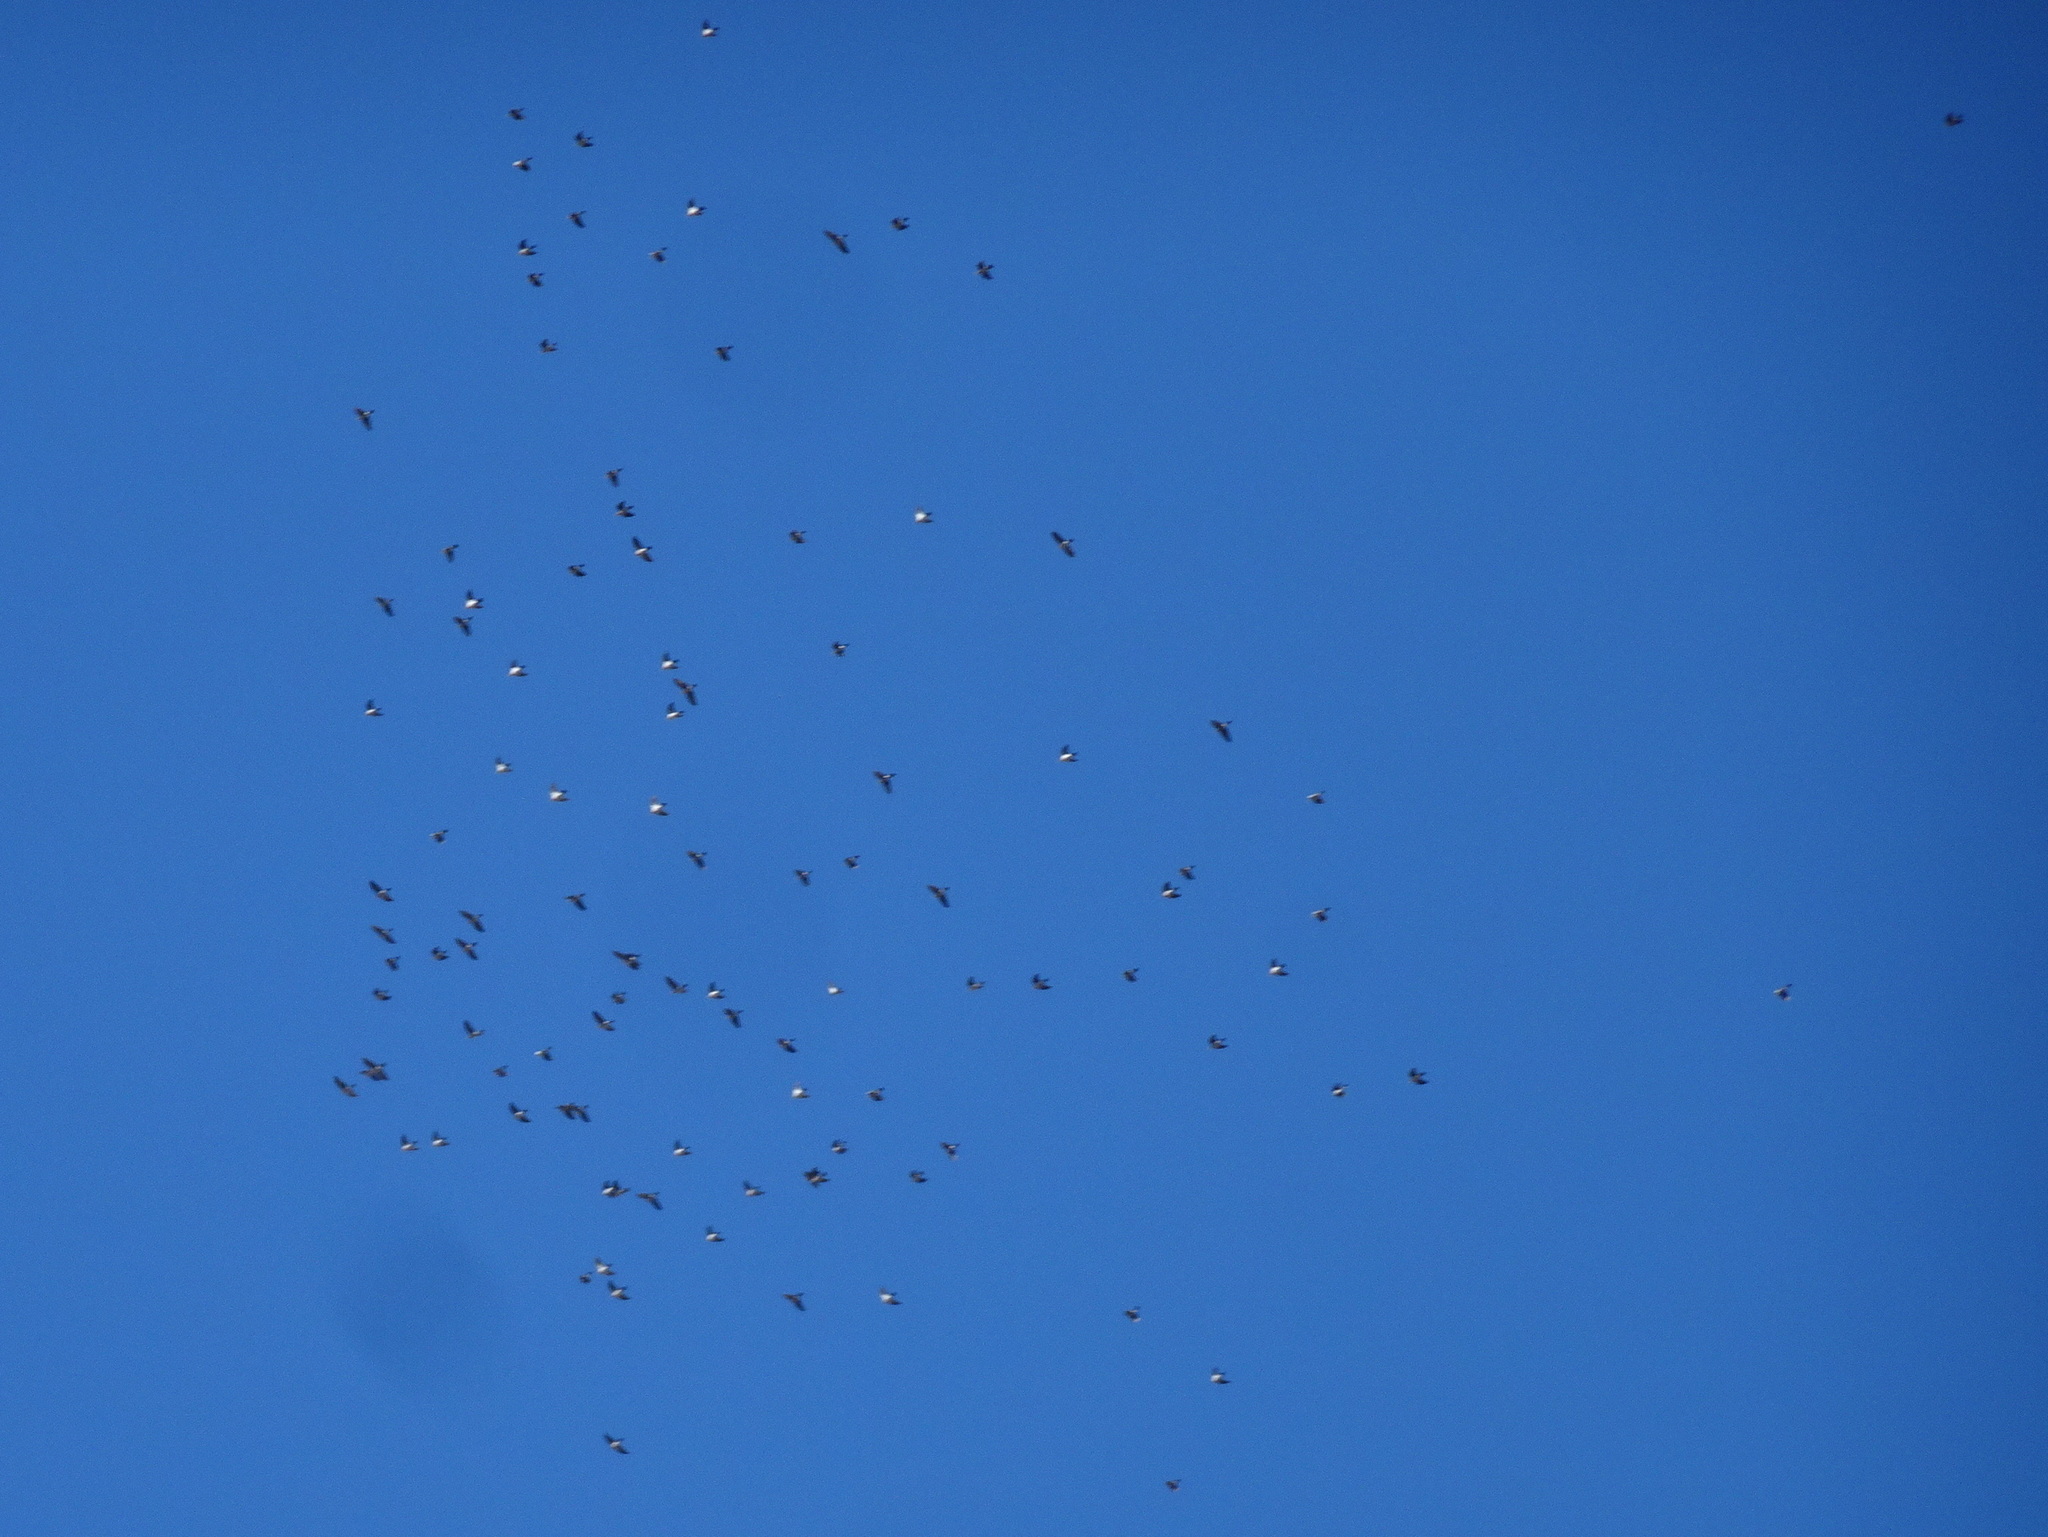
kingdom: Animalia
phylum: Chordata
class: Aves
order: Columbiformes
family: Columbidae
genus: Columba
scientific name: Columba palumbus
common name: Common wood pigeon
